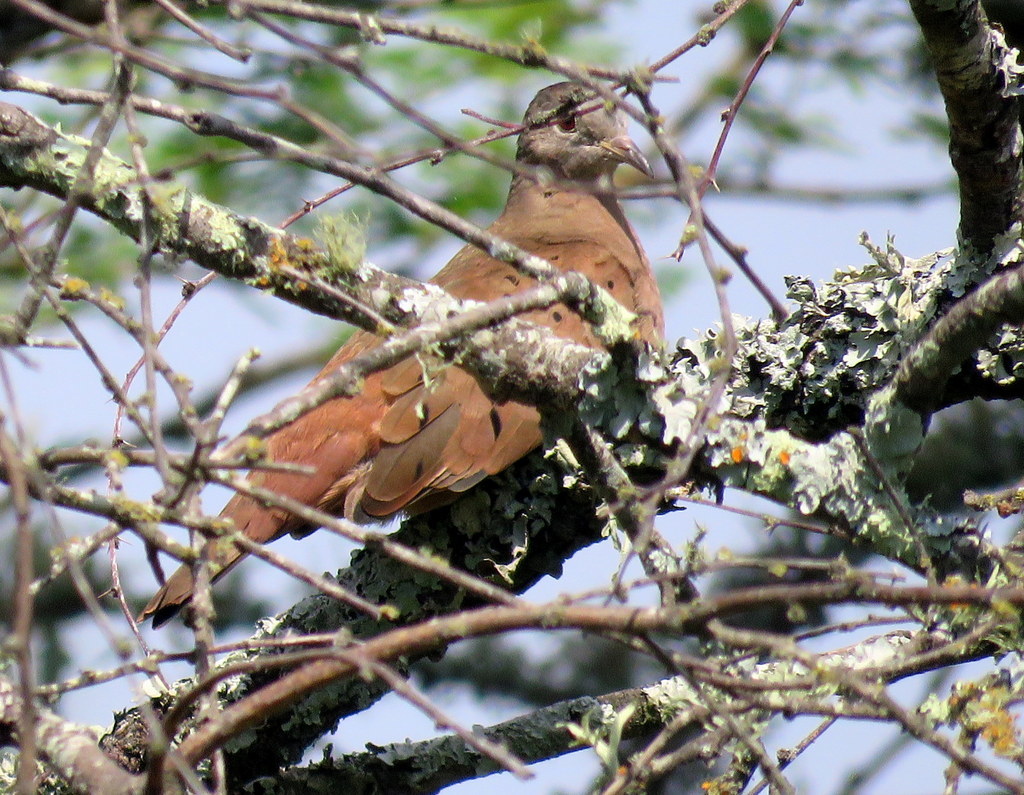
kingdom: Animalia
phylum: Chordata
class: Aves
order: Columbiformes
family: Columbidae
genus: Columbina
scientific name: Columbina talpacoti
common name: Ruddy ground dove
